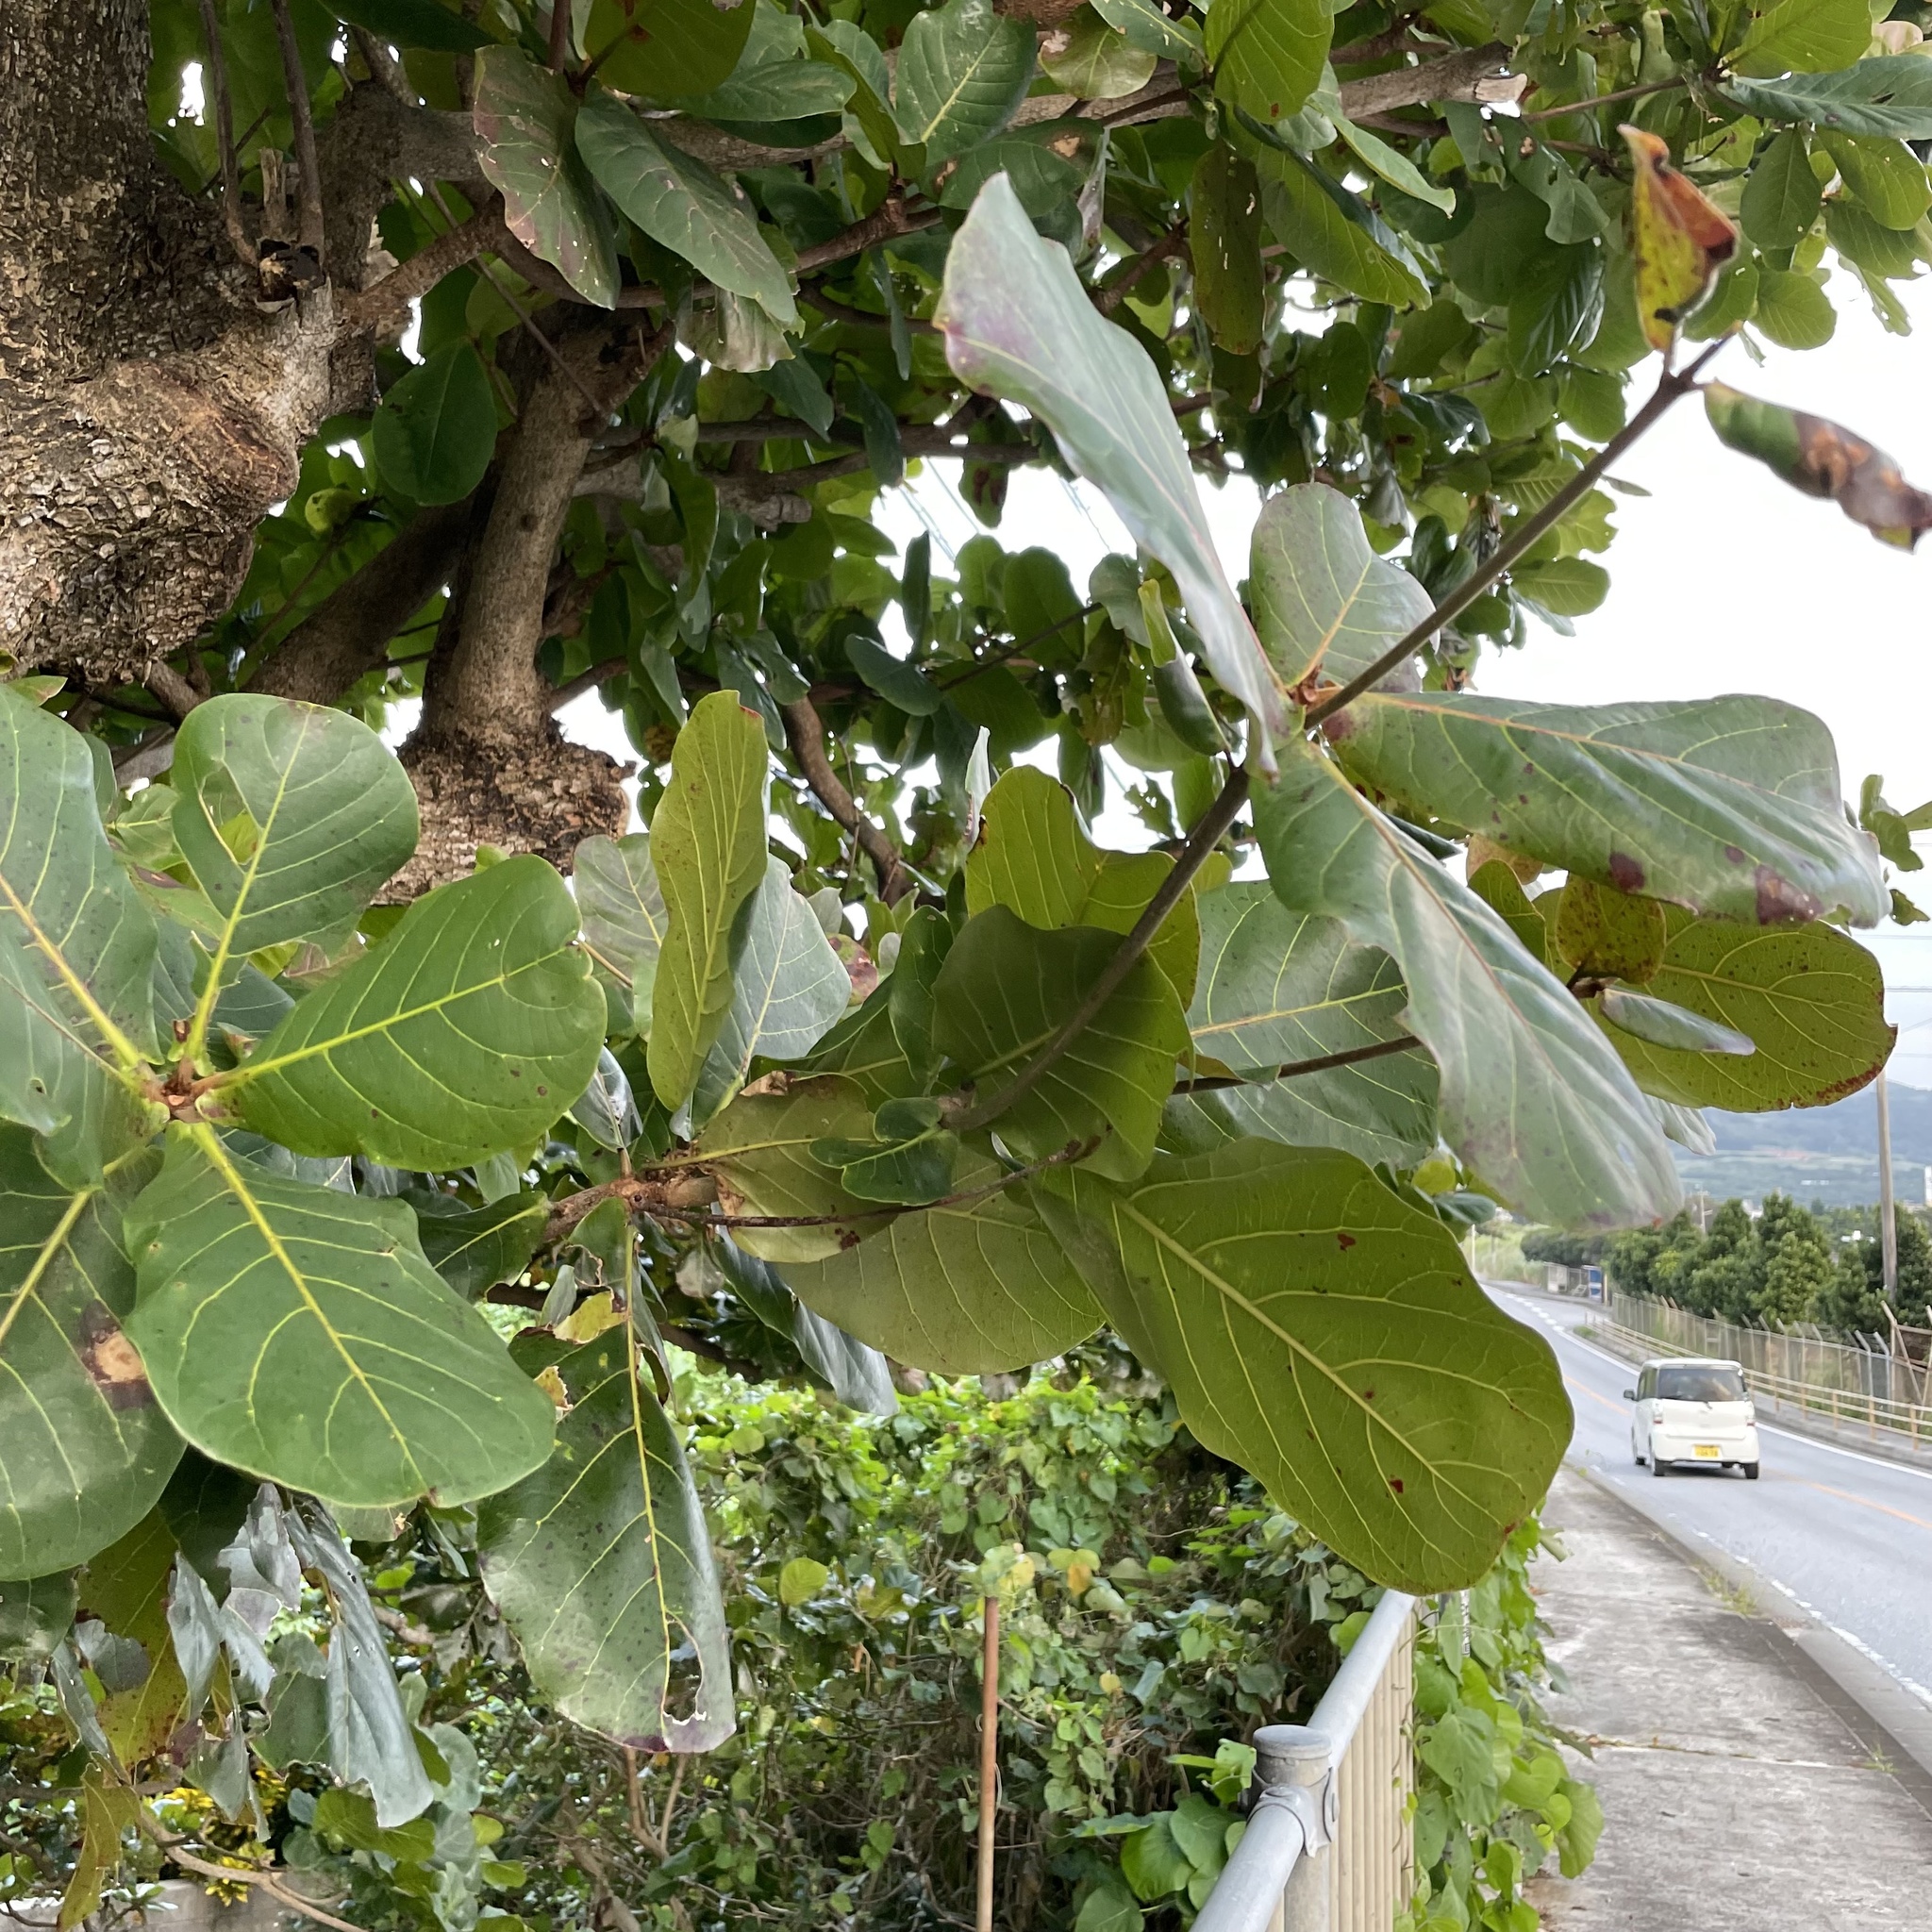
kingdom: Plantae
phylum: Tracheophyta
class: Magnoliopsida
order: Myrtales
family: Combretaceae
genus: Terminalia
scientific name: Terminalia catappa
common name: Tropical almond
